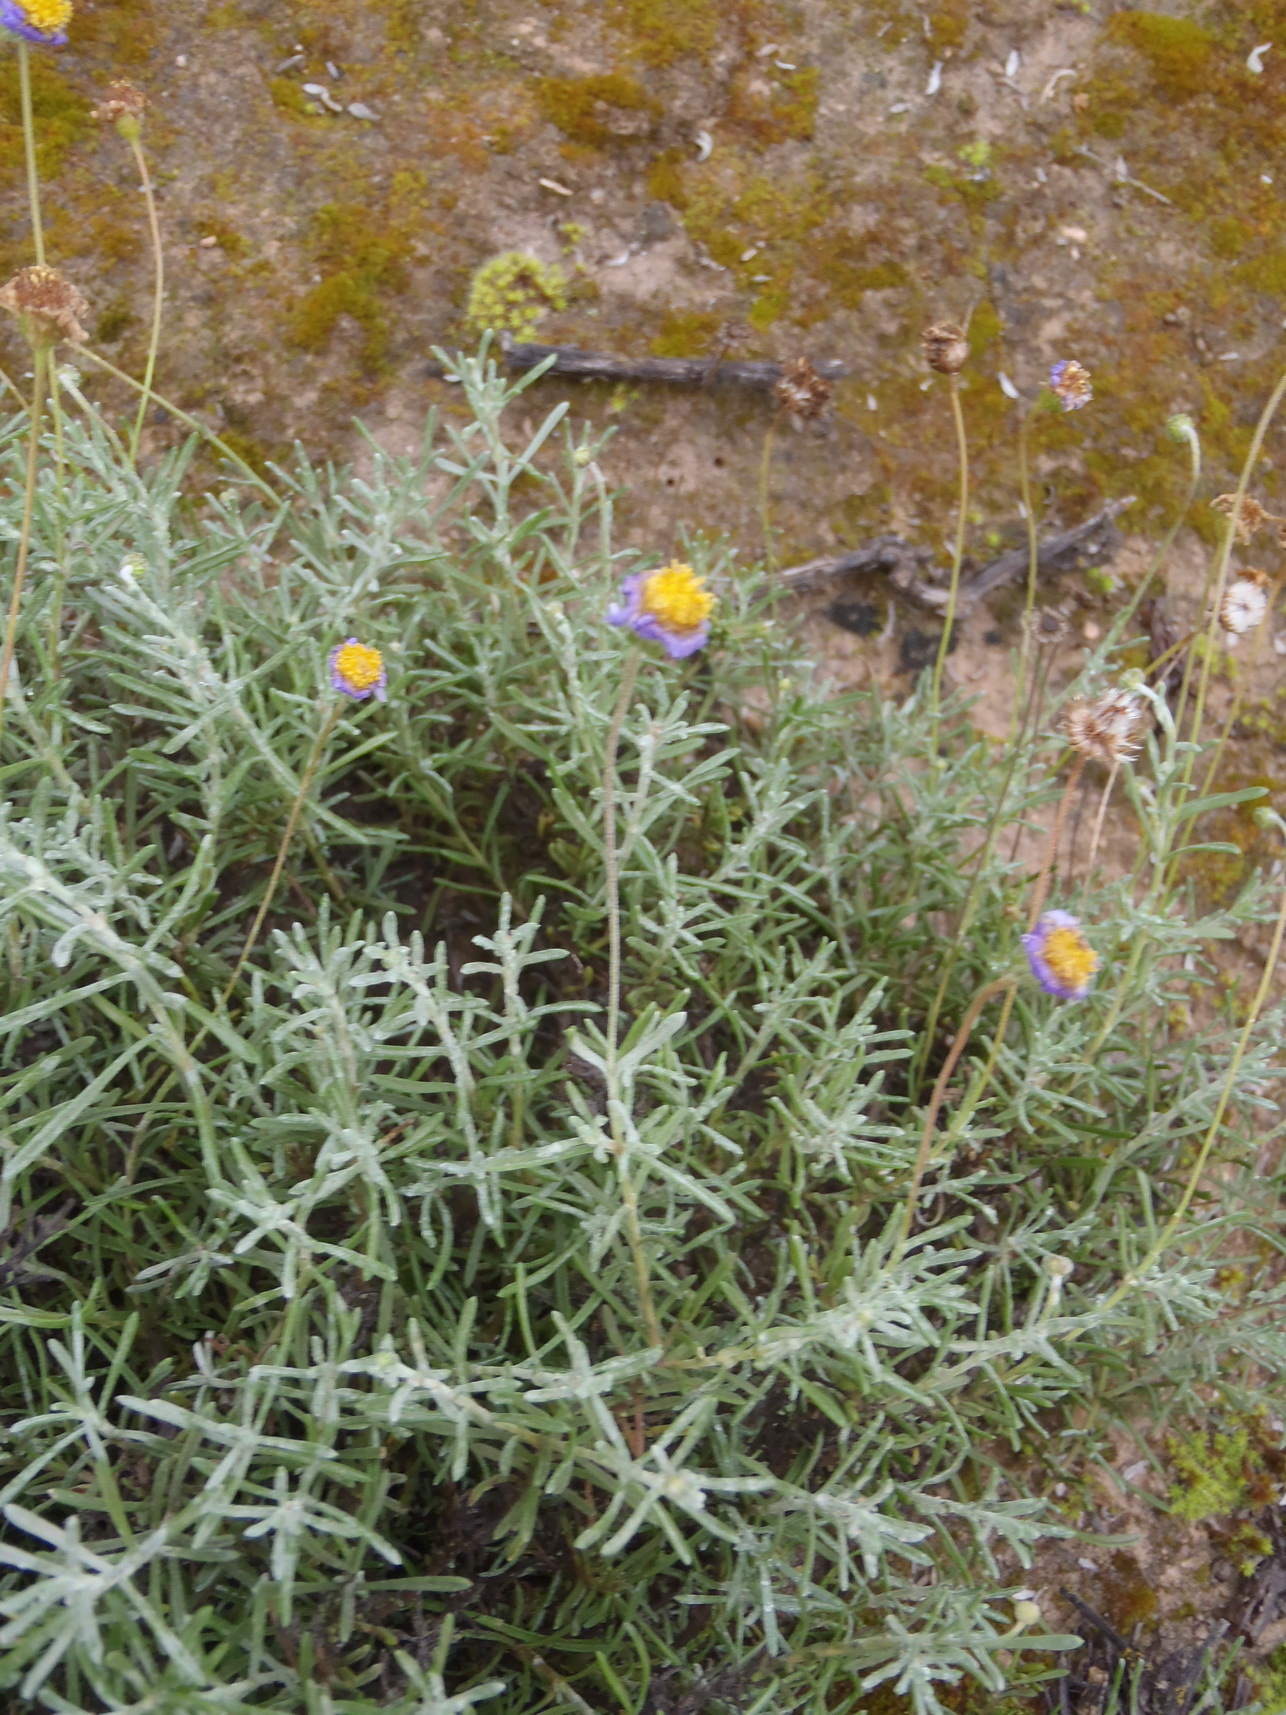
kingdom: Plantae
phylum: Tracheophyta
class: Magnoliopsida
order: Asterales
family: Asteraceae
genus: Felicia
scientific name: Felicia muricata
